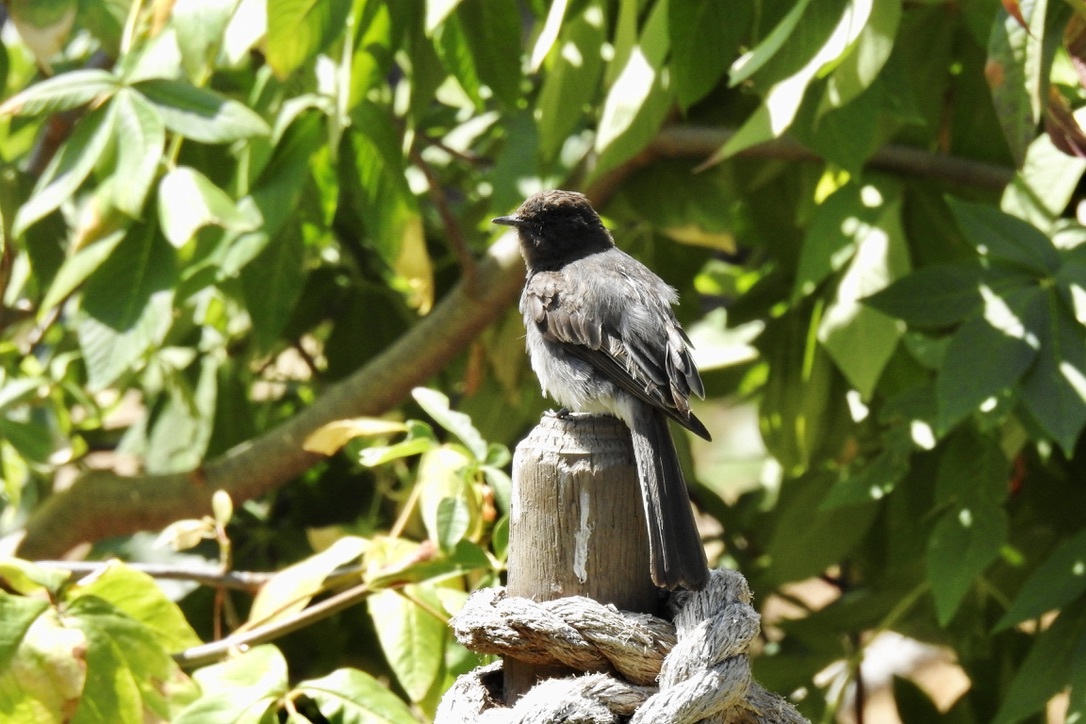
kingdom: Animalia
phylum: Chordata
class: Aves
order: Passeriformes
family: Tyrannidae
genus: Sayornis
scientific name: Sayornis nigricans
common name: Black phoebe
